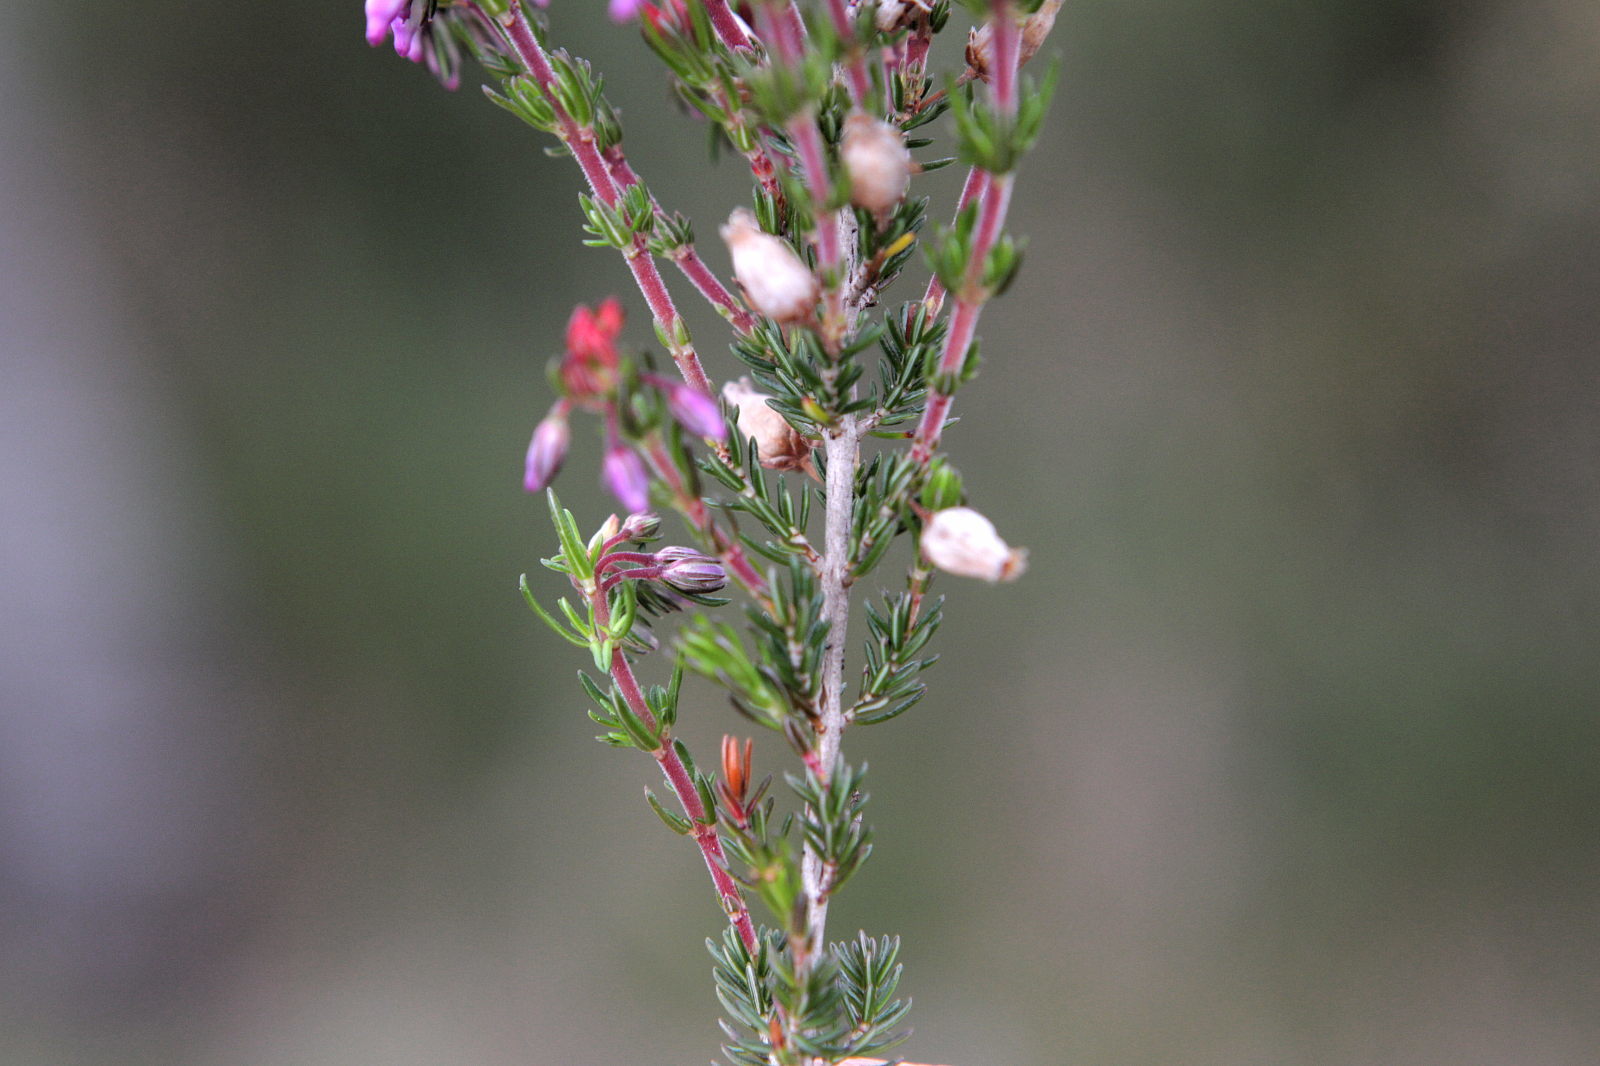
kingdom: Plantae
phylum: Tracheophyta
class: Magnoliopsida
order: Ericales
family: Ericaceae
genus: Erica
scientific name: Erica cinerea
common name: Bell heather
